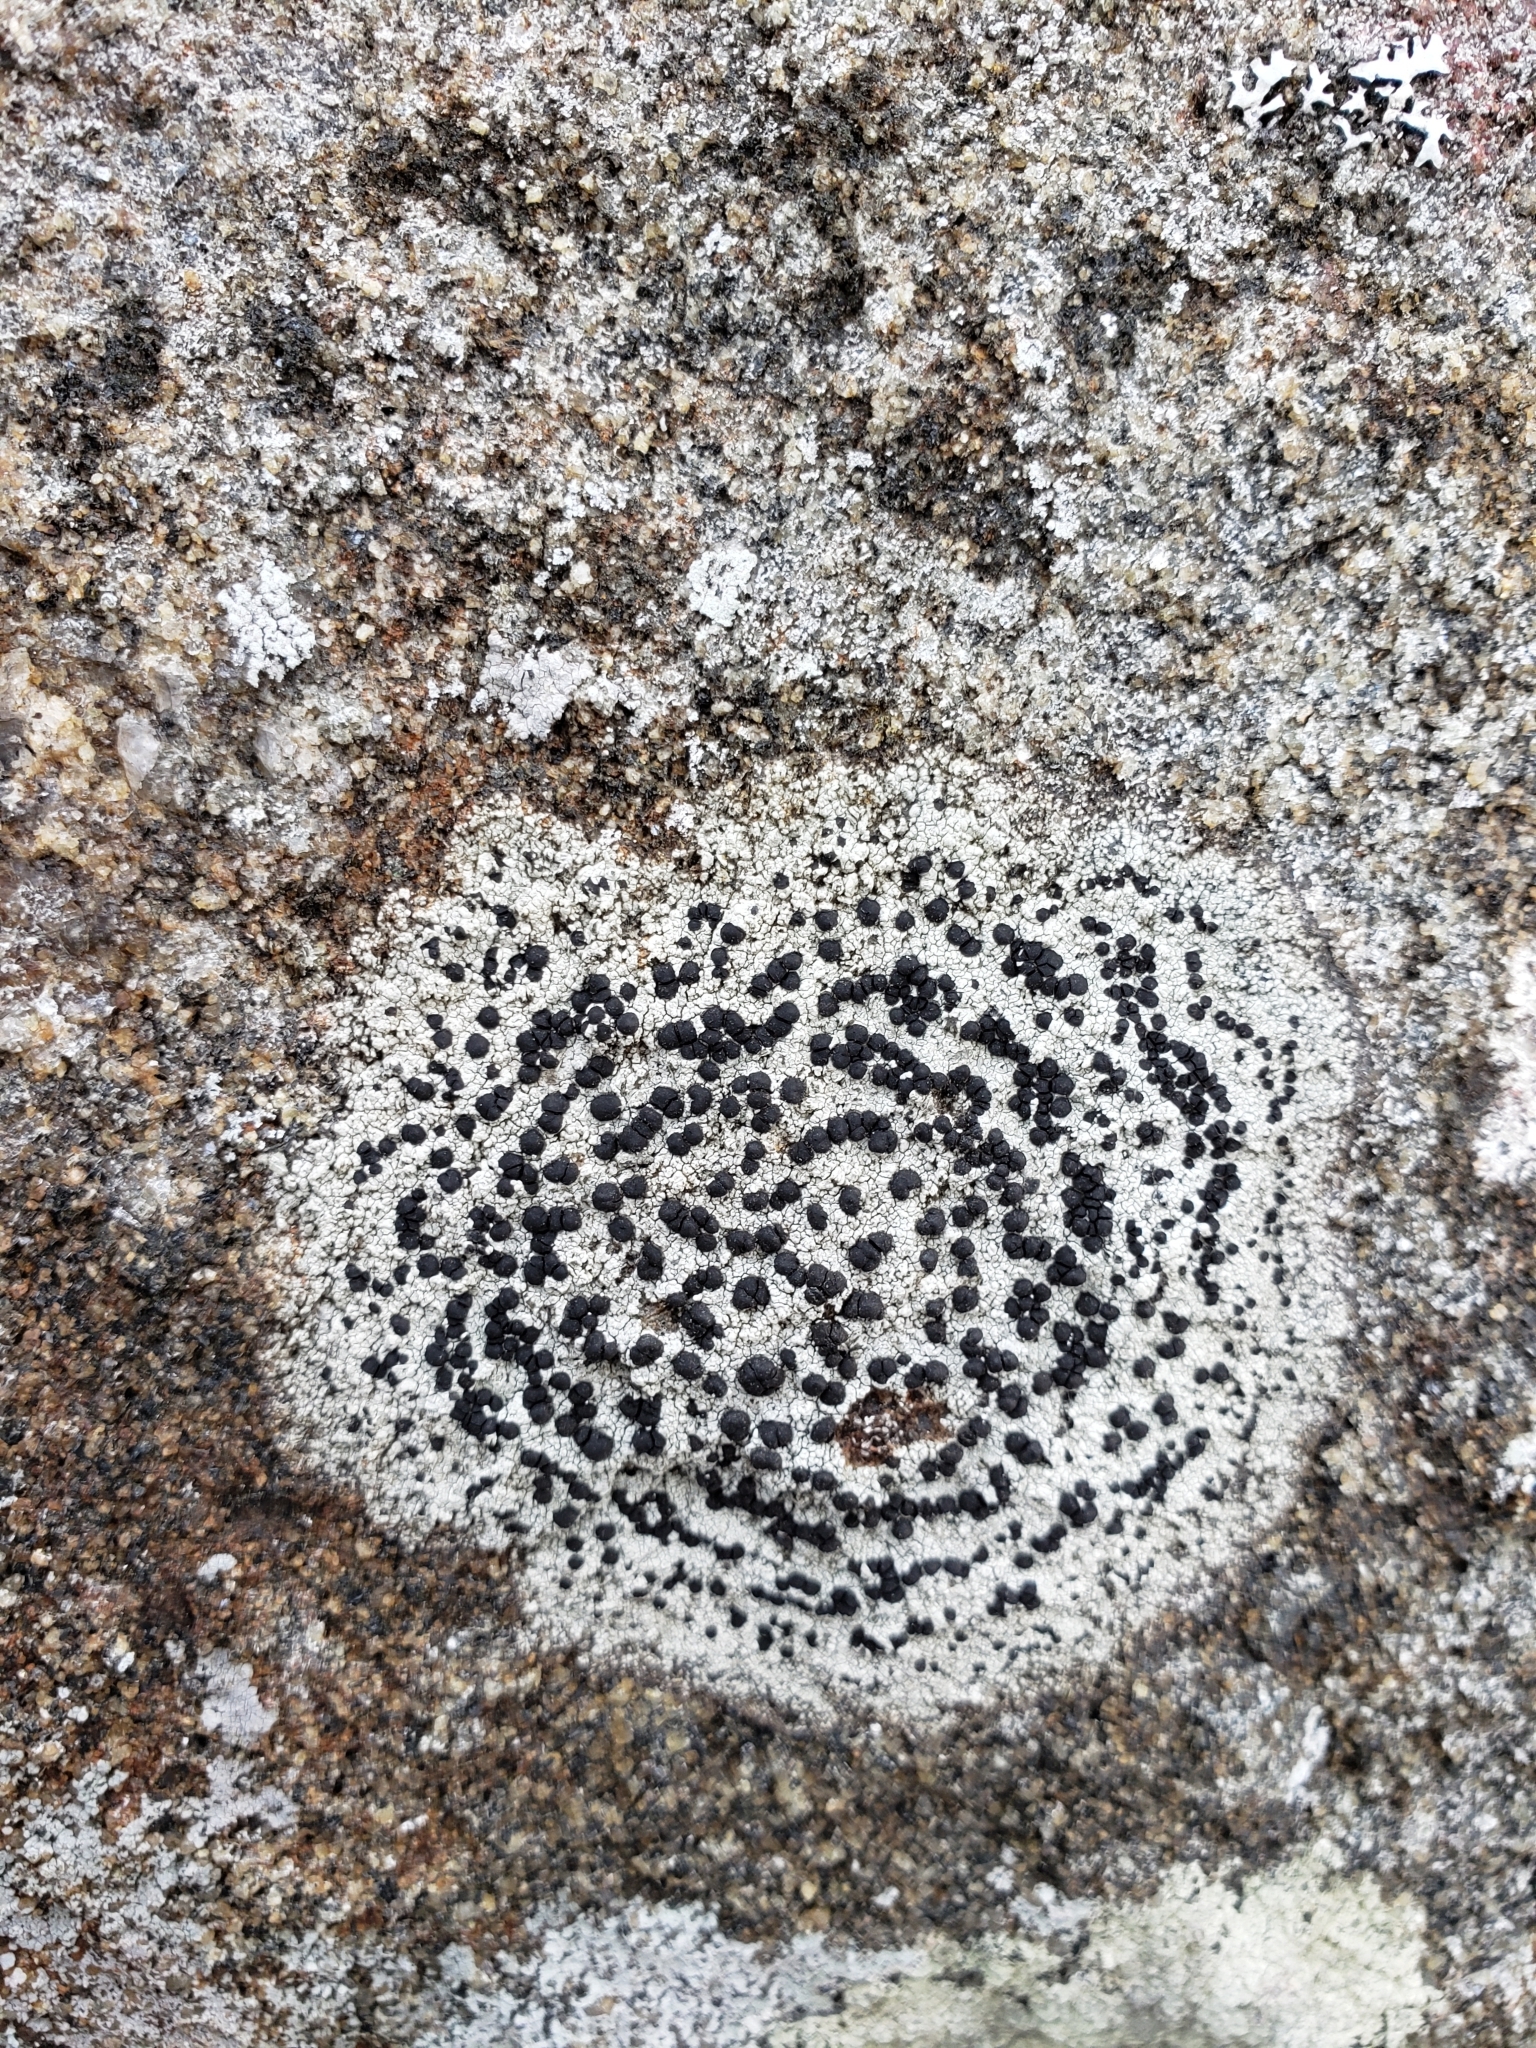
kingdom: Fungi
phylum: Ascomycota
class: Lecanoromycetes
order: Lecideales
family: Lecideaceae
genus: Porpidia
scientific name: Porpidia crustulata
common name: Concentric boulder lichen
